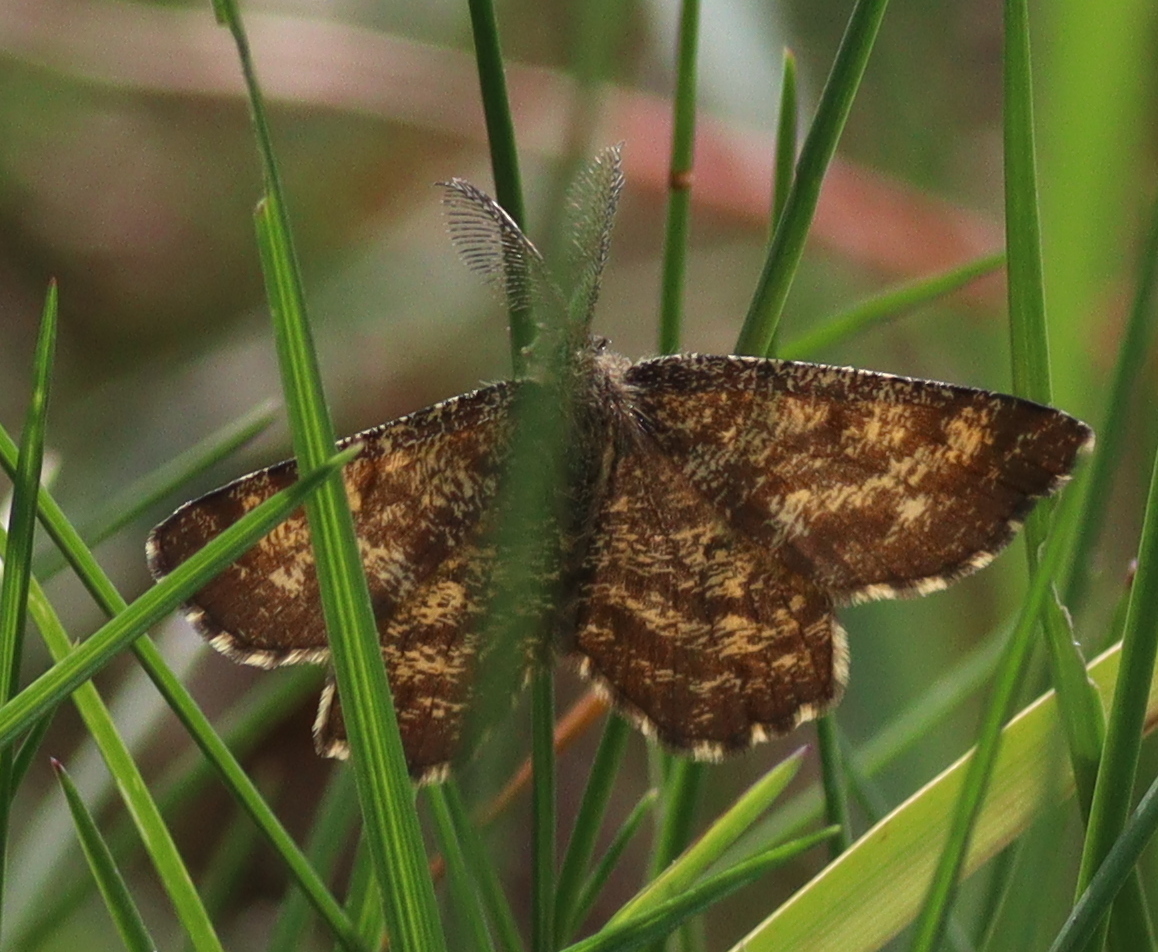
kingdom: Animalia
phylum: Arthropoda
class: Insecta
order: Lepidoptera
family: Geometridae
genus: Ematurga
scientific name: Ematurga atomaria
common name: Common heath
